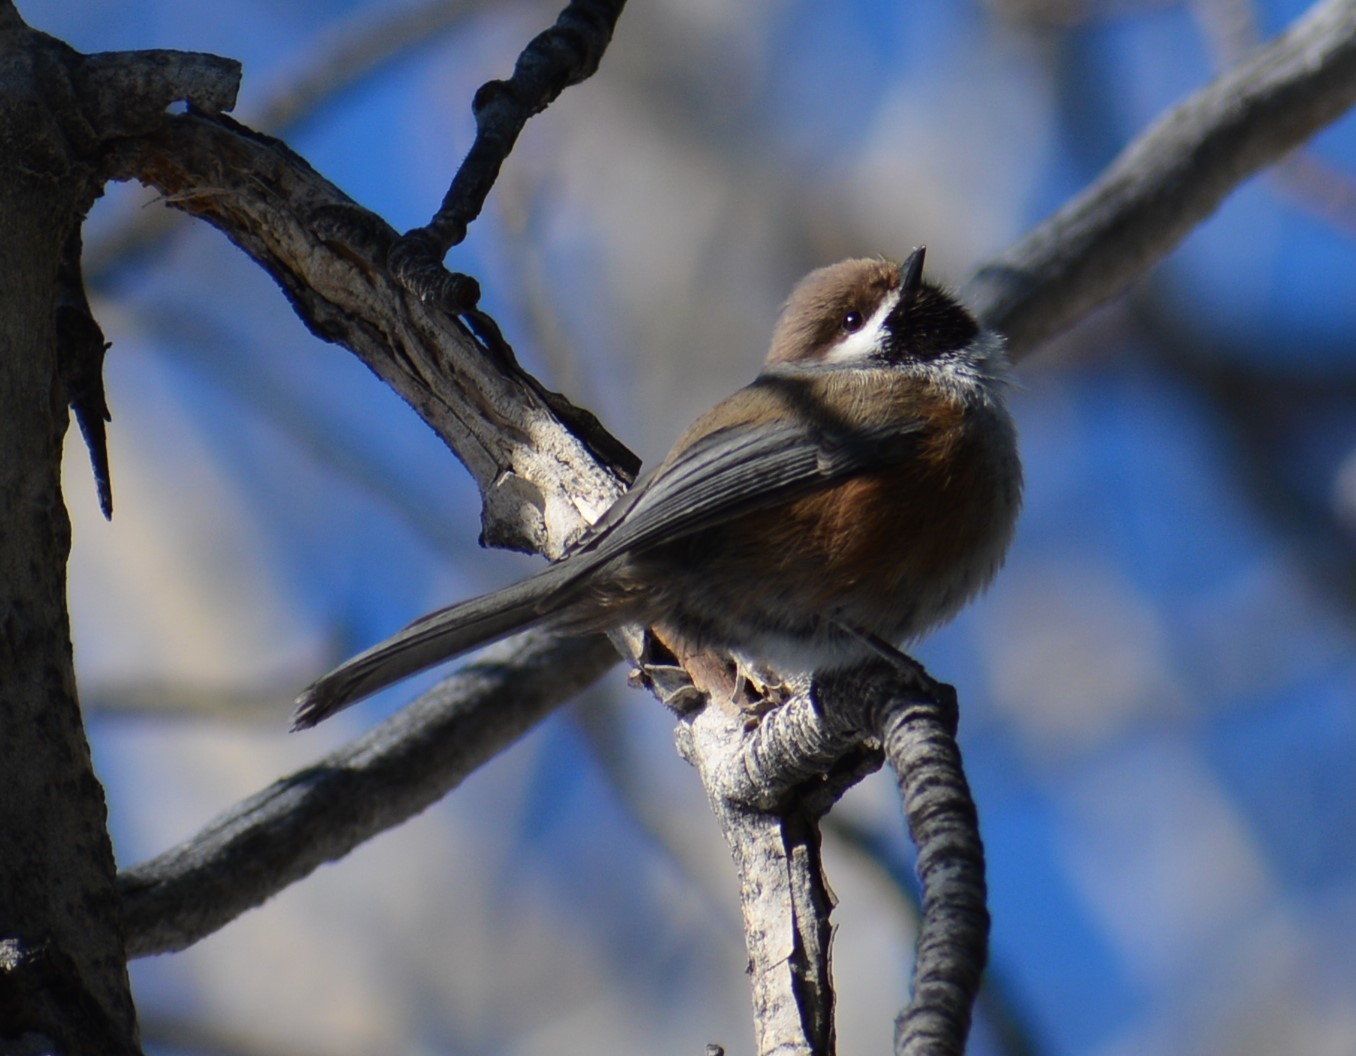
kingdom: Animalia
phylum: Chordata
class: Aves
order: Passeriformes
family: Paridae
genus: Poecile
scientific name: Poecile hudsonicus
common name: Boreal chickadee
